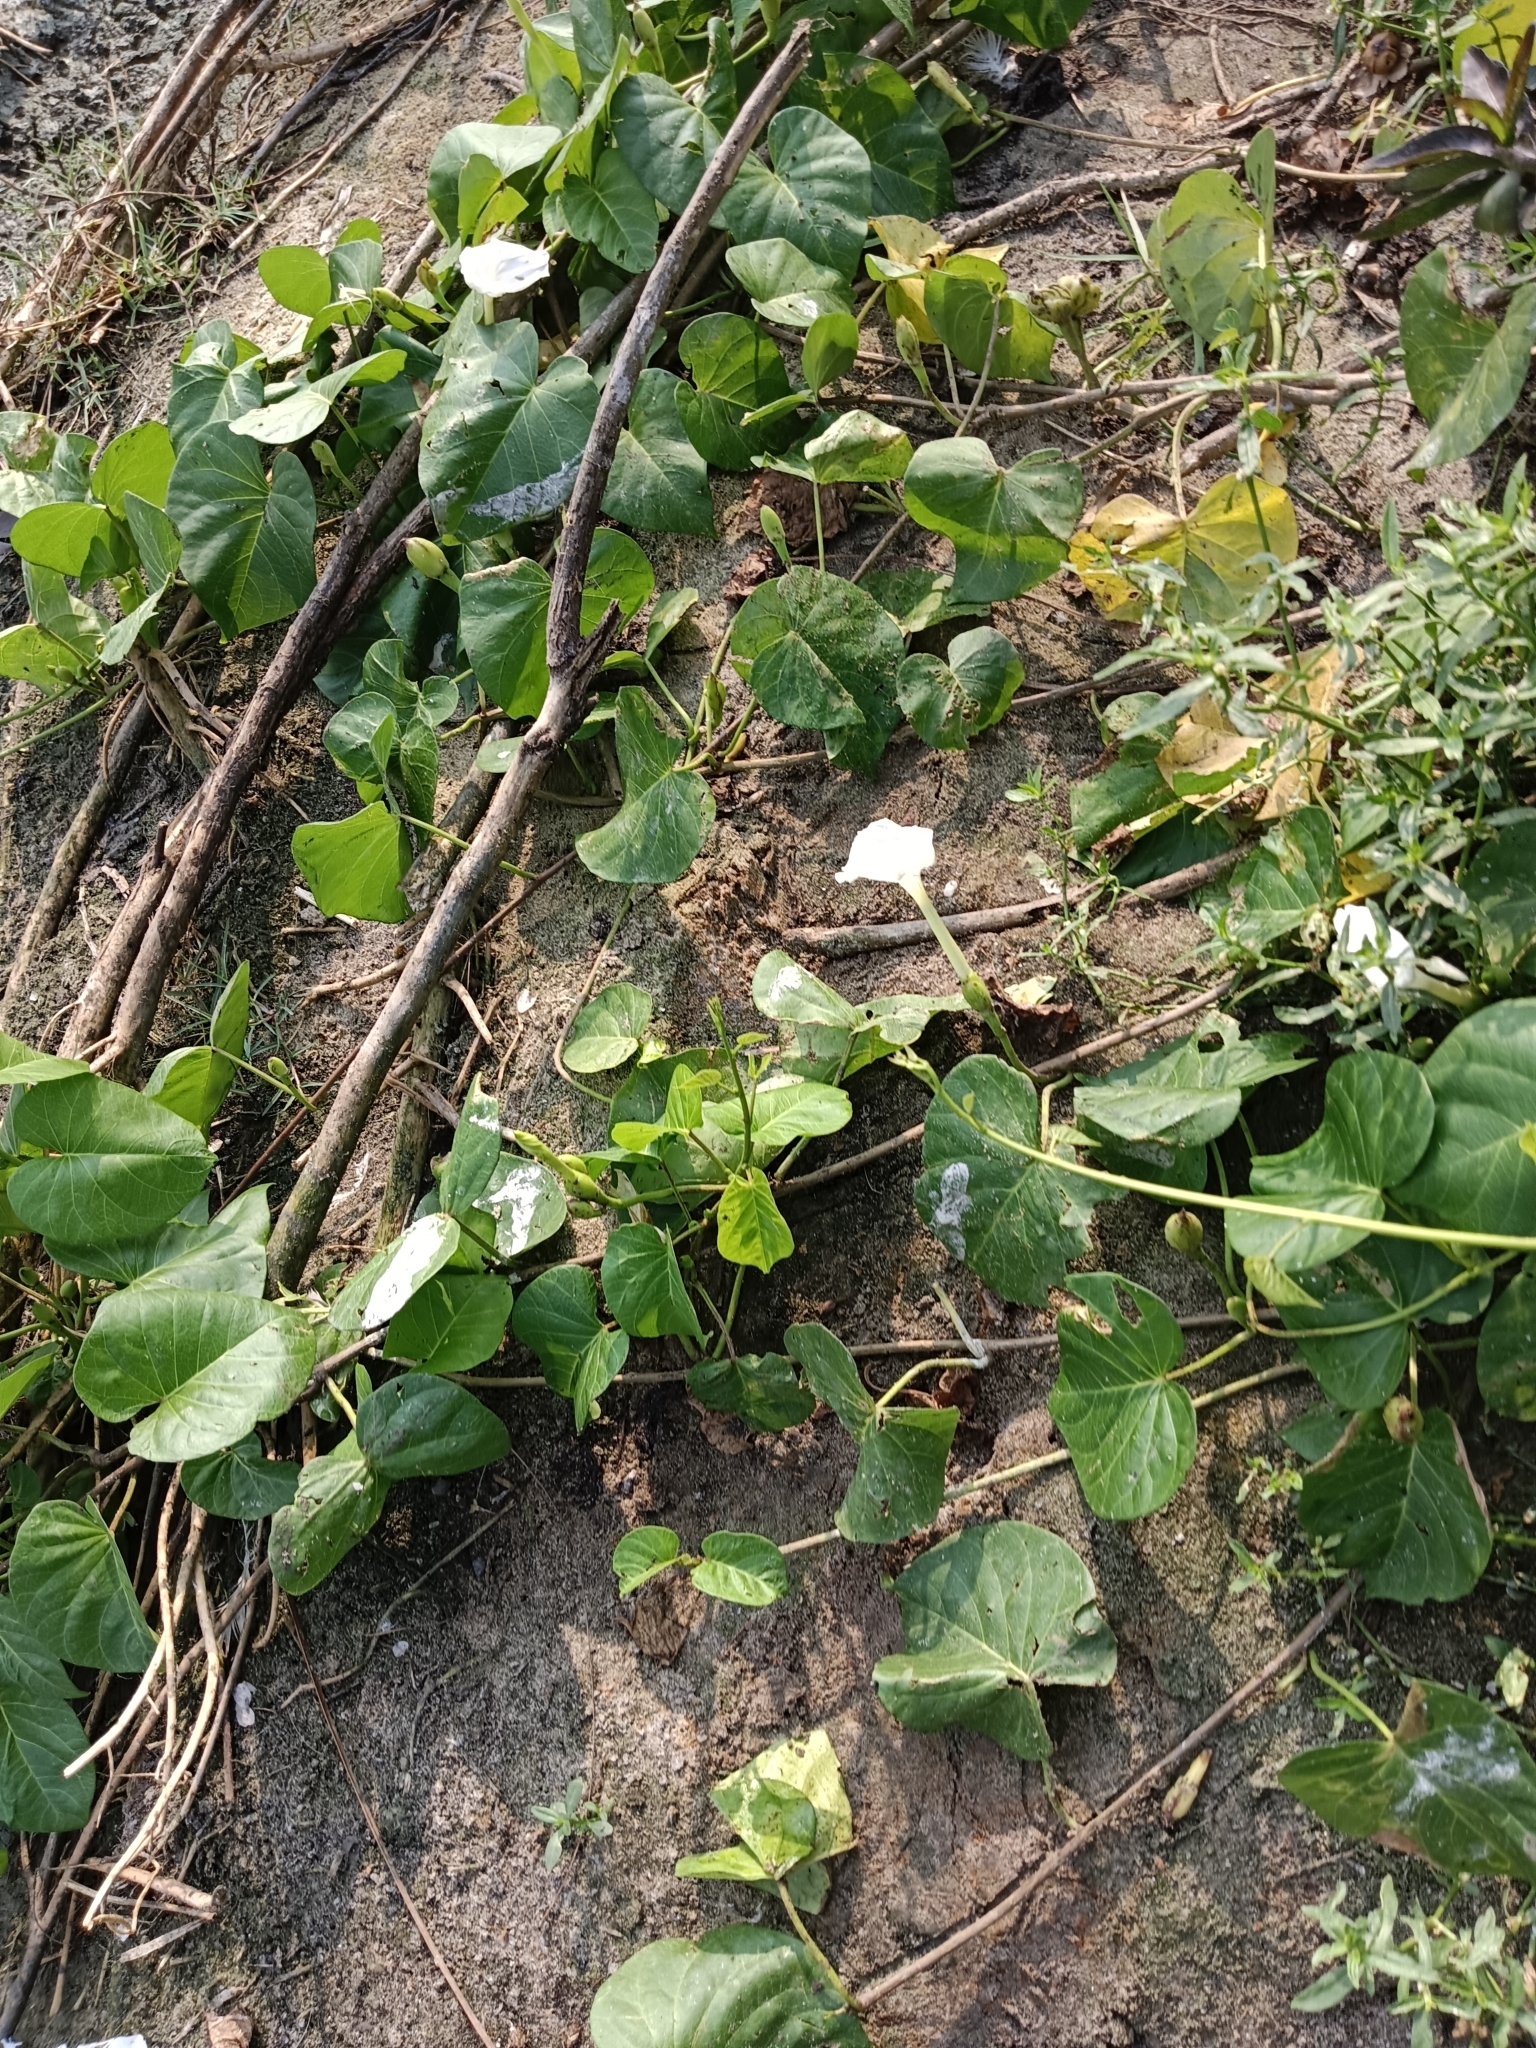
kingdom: Plantae
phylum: Tracheophyta
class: Magnoliopsida
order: Solanales
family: Convolvulaceae
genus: Ipomoea
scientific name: Ipomoea violacea
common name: Beach moonflower
